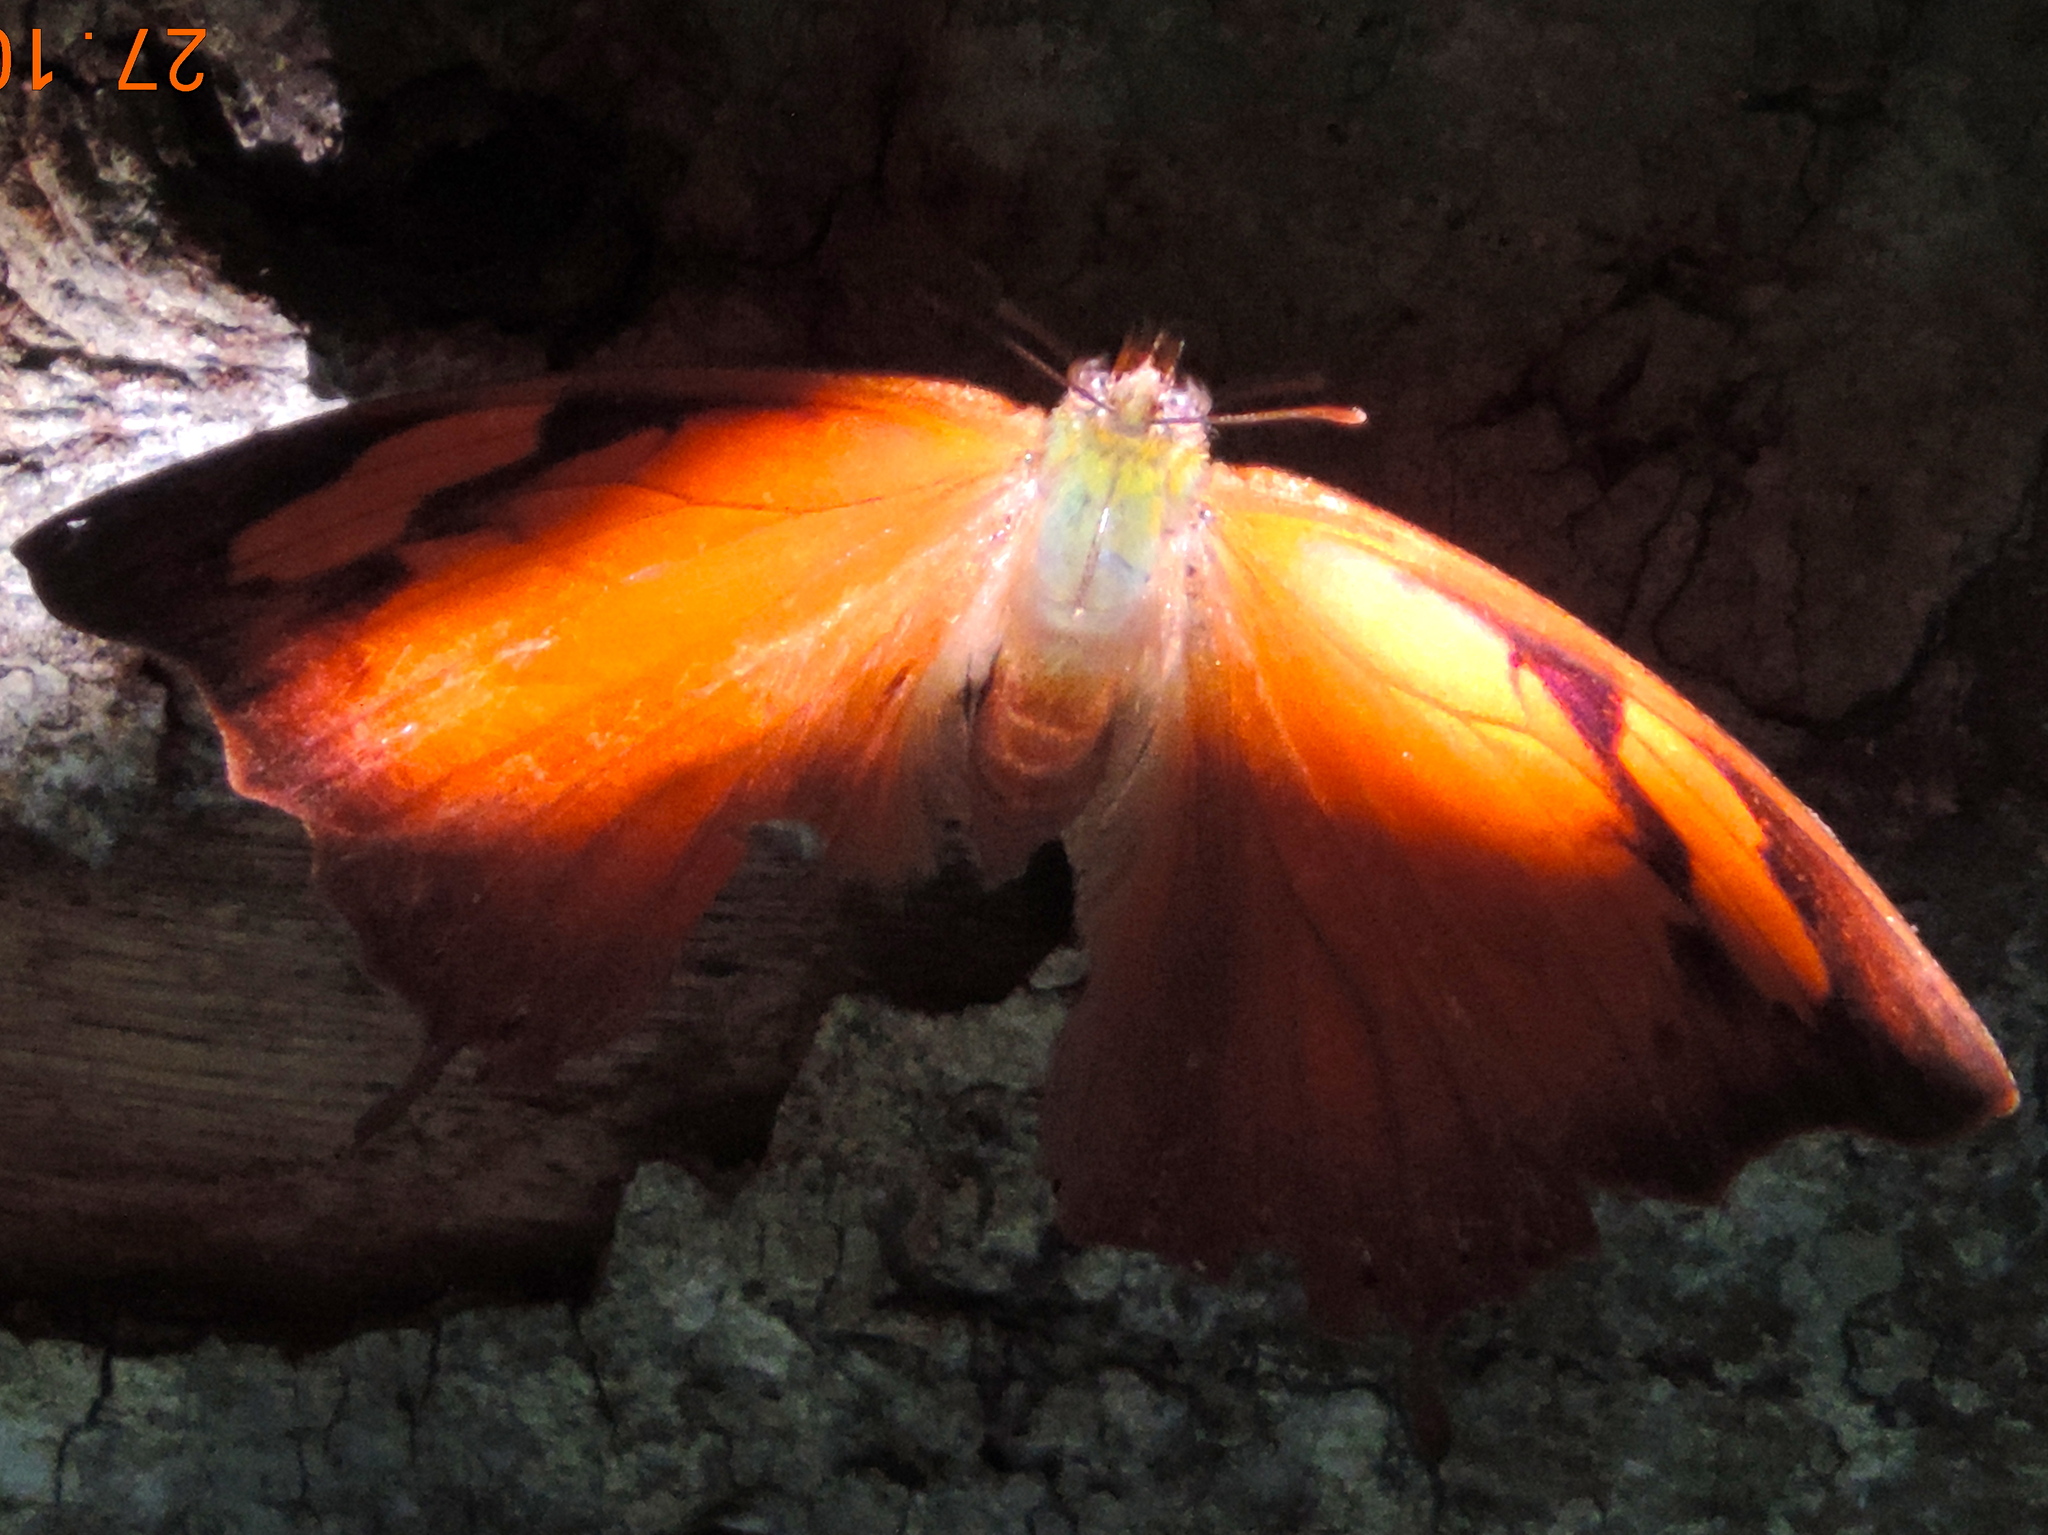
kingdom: Animalia
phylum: Arthropoda
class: Insecta
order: Lepidoptera
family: Nymphalidae
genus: Fountainea
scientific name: Fountainea
